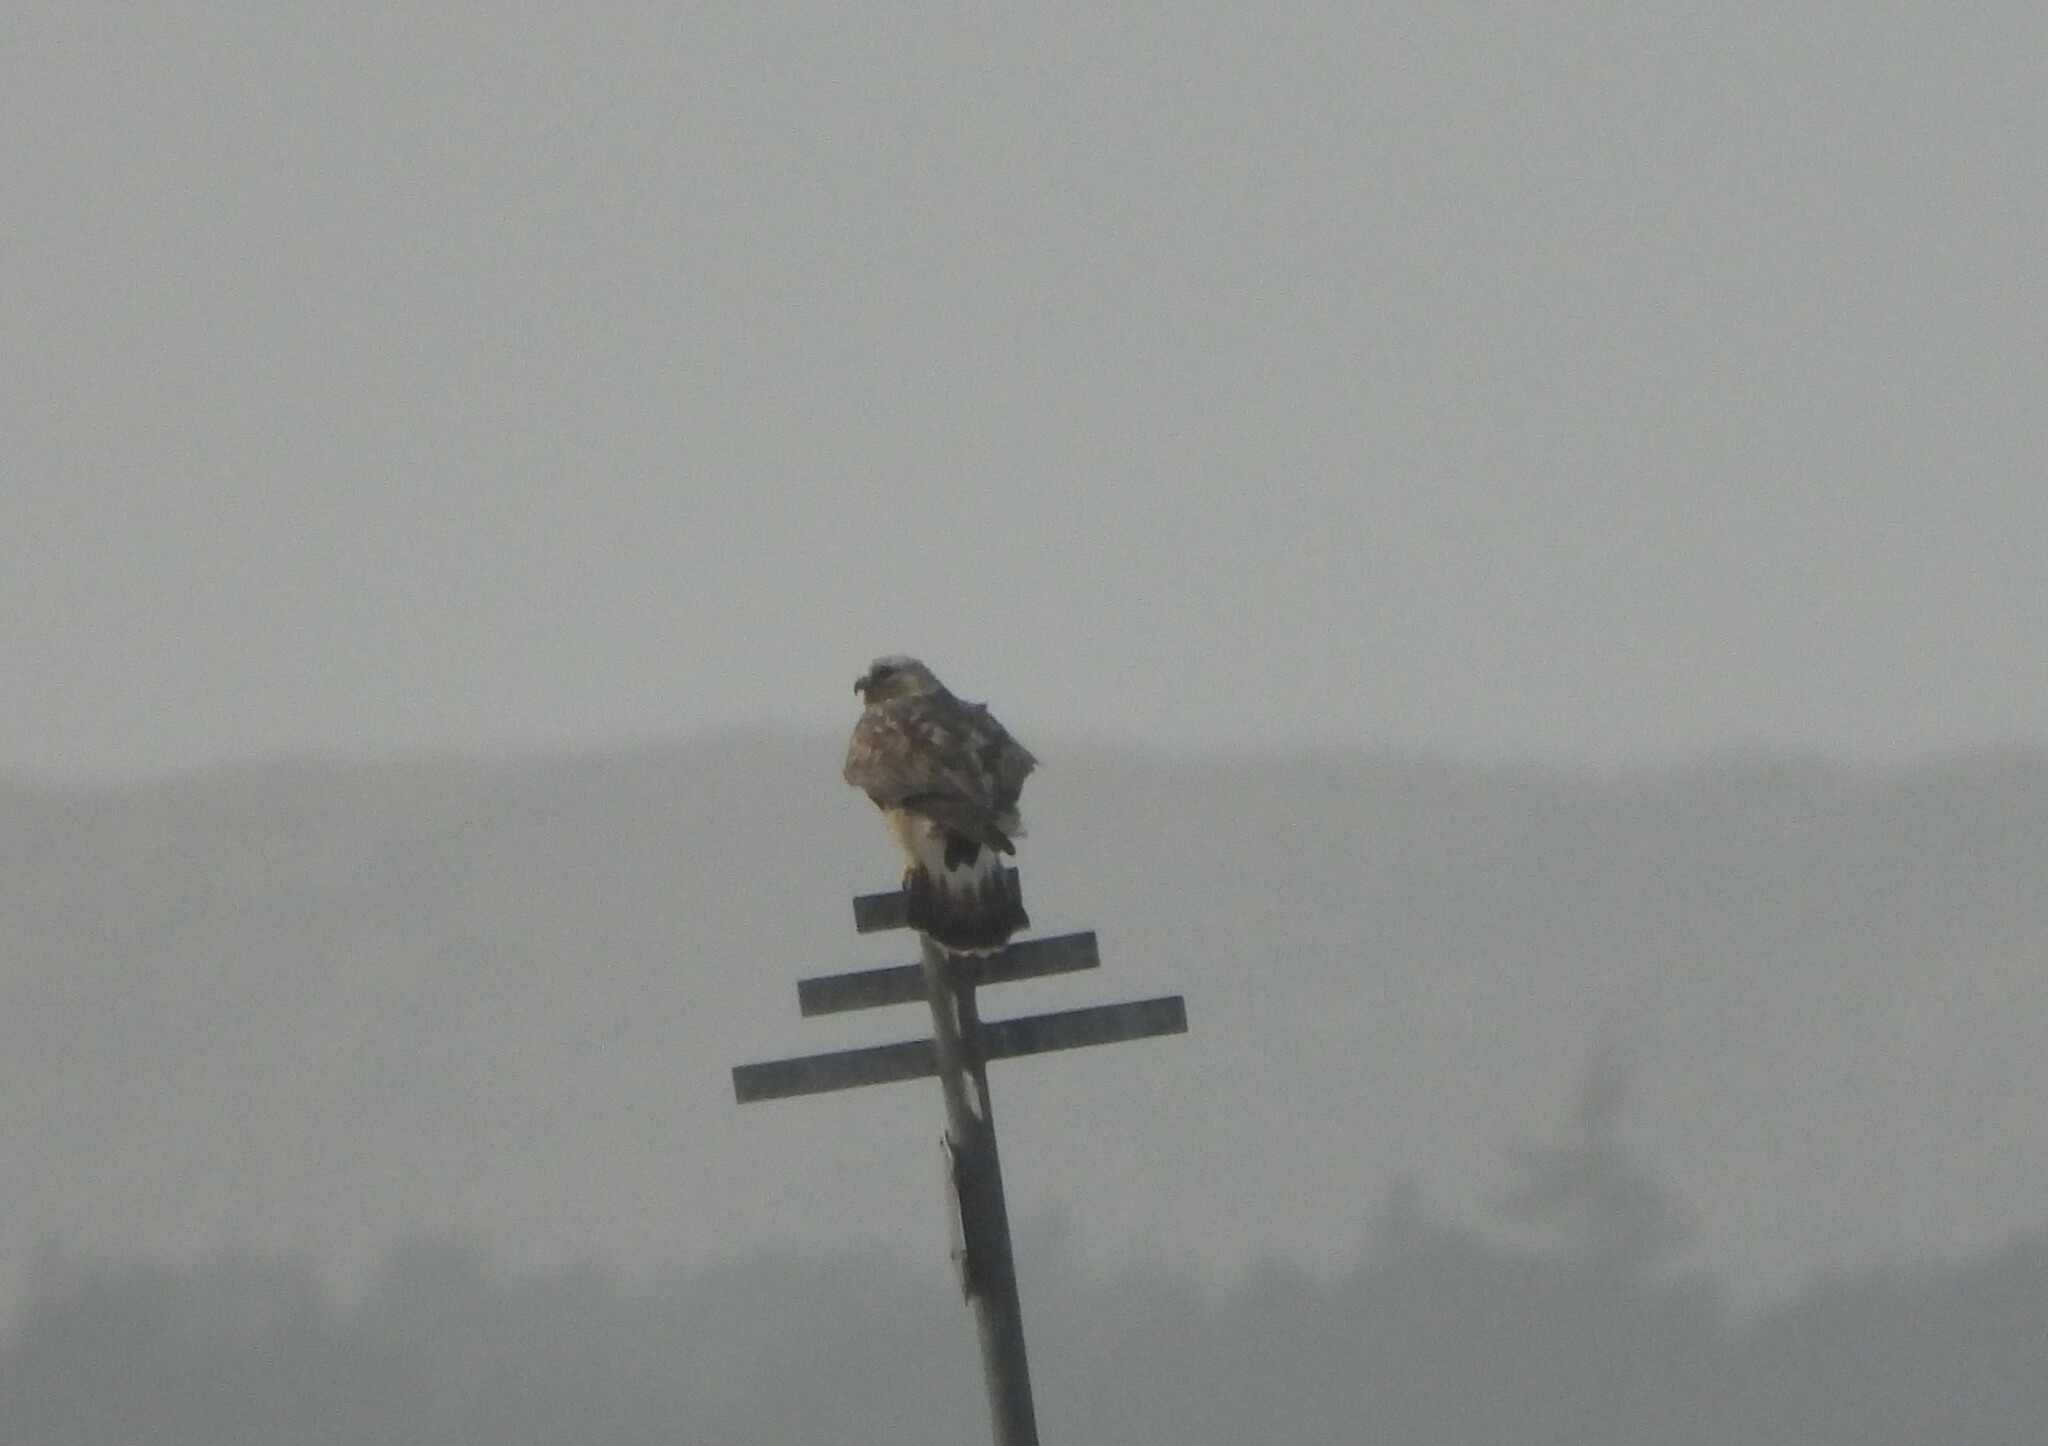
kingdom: Animalia
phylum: Chordata
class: Aves
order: Accipitriformes
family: Accipitridae
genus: Buteo
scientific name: Buteo lagopus
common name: Rough-legged buzzard
